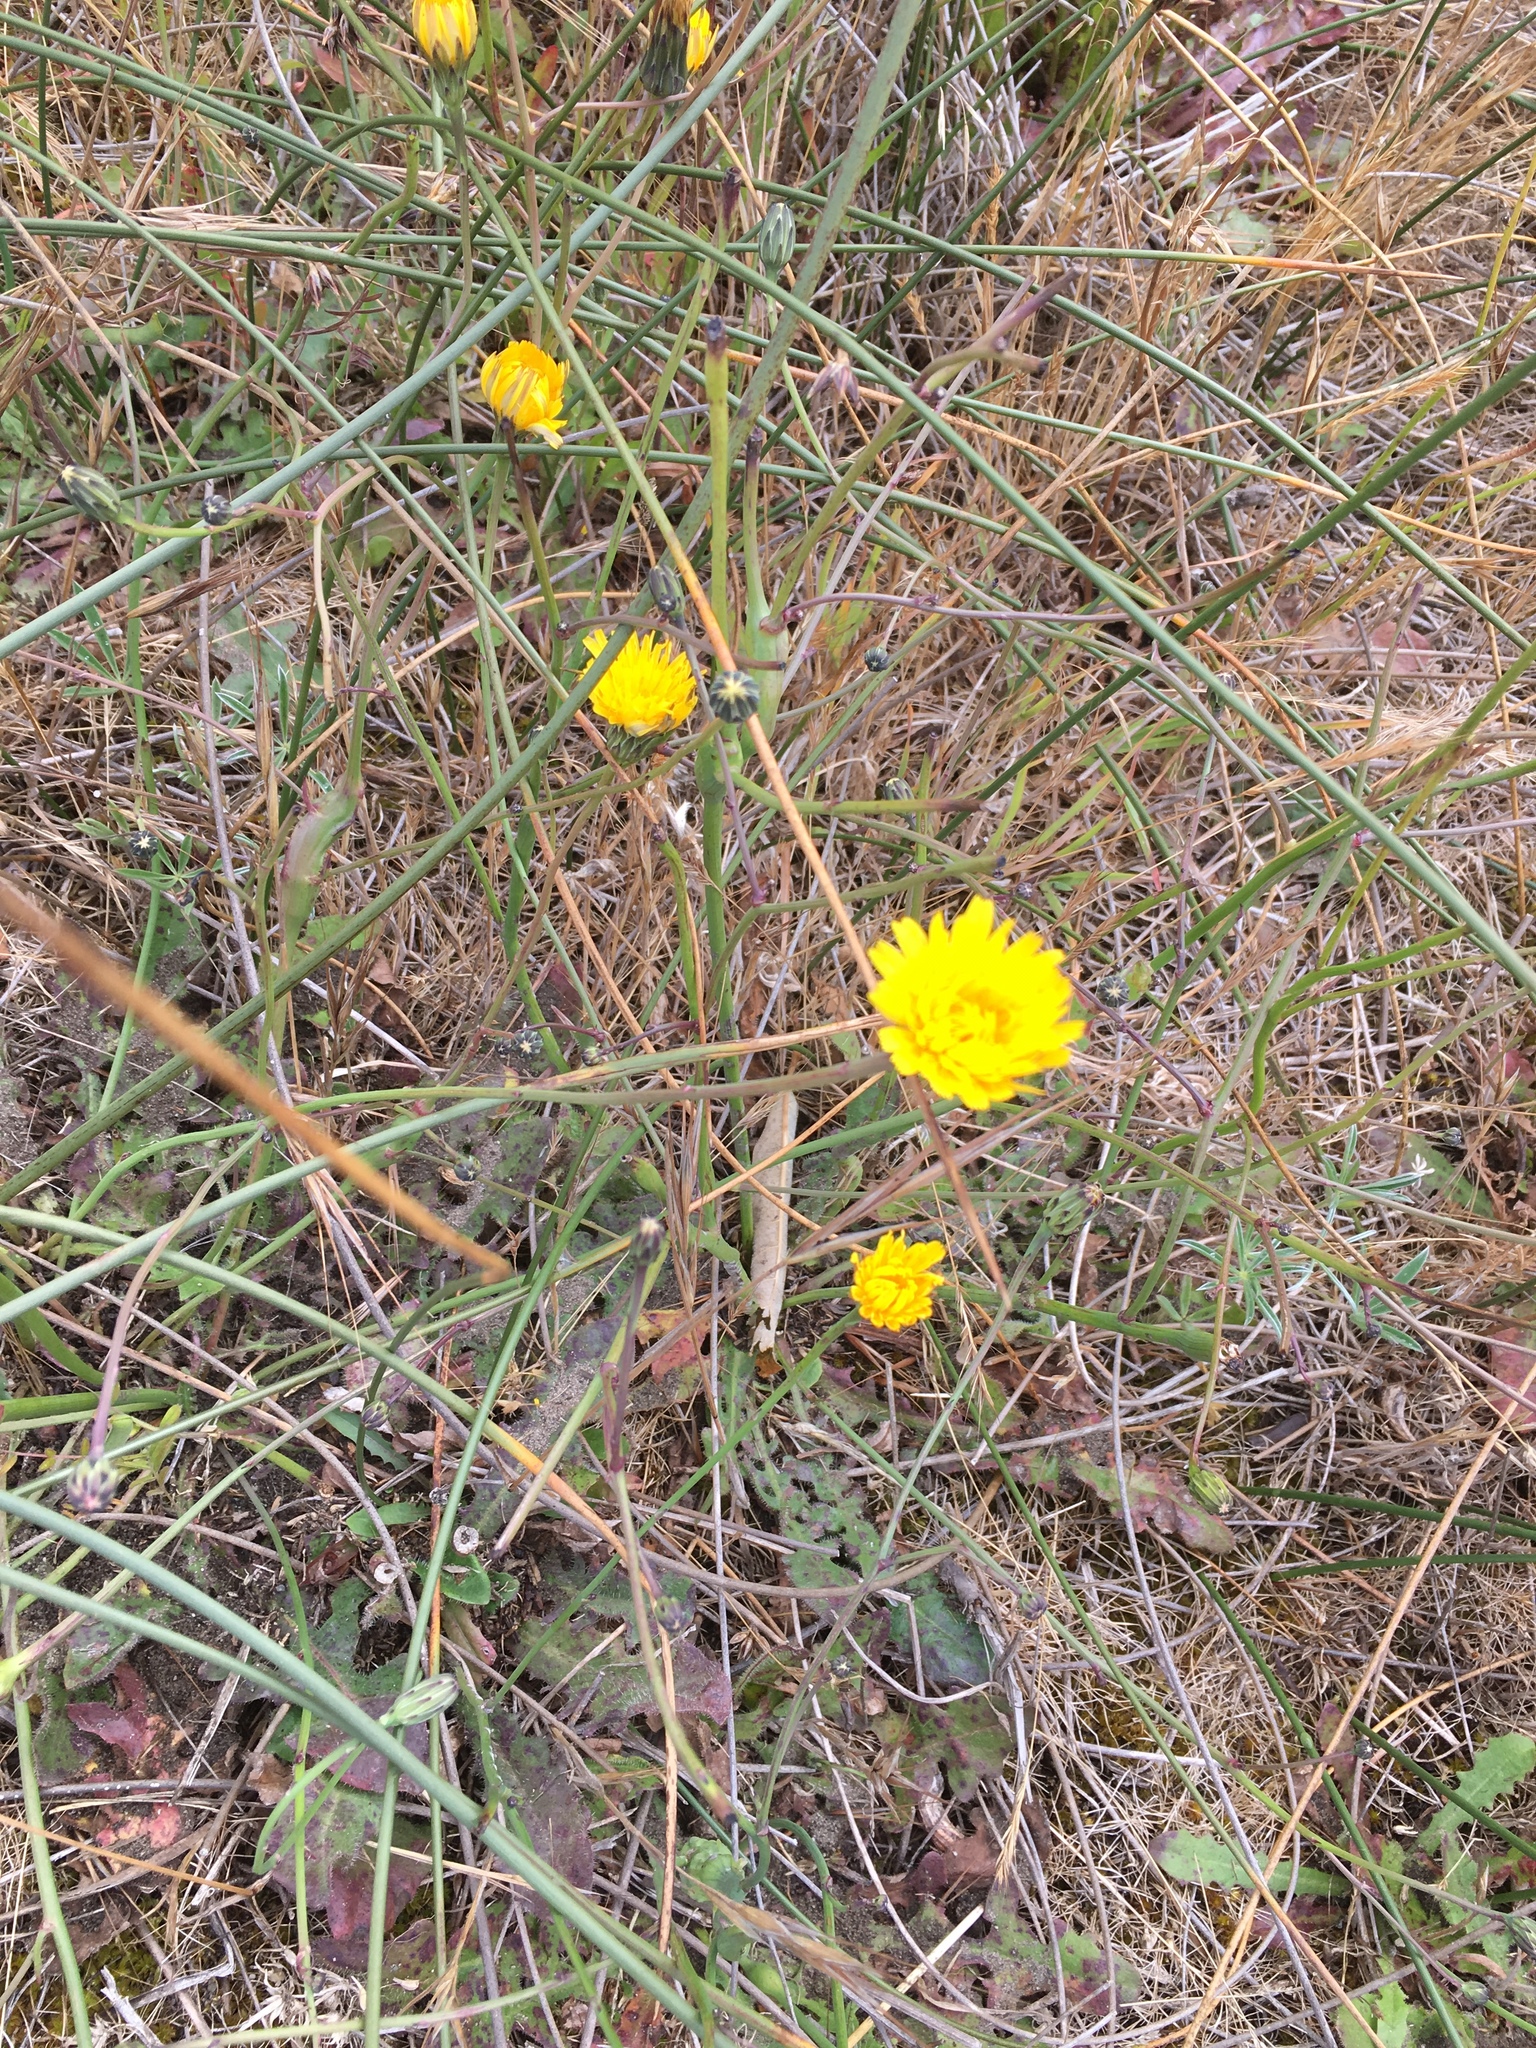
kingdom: Plantae
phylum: Tracheophyta
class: Magnoliopsida
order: Asterales
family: Asteraceae
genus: Hypochaeris
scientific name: Hypochaeris radicata
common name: Flatweed
